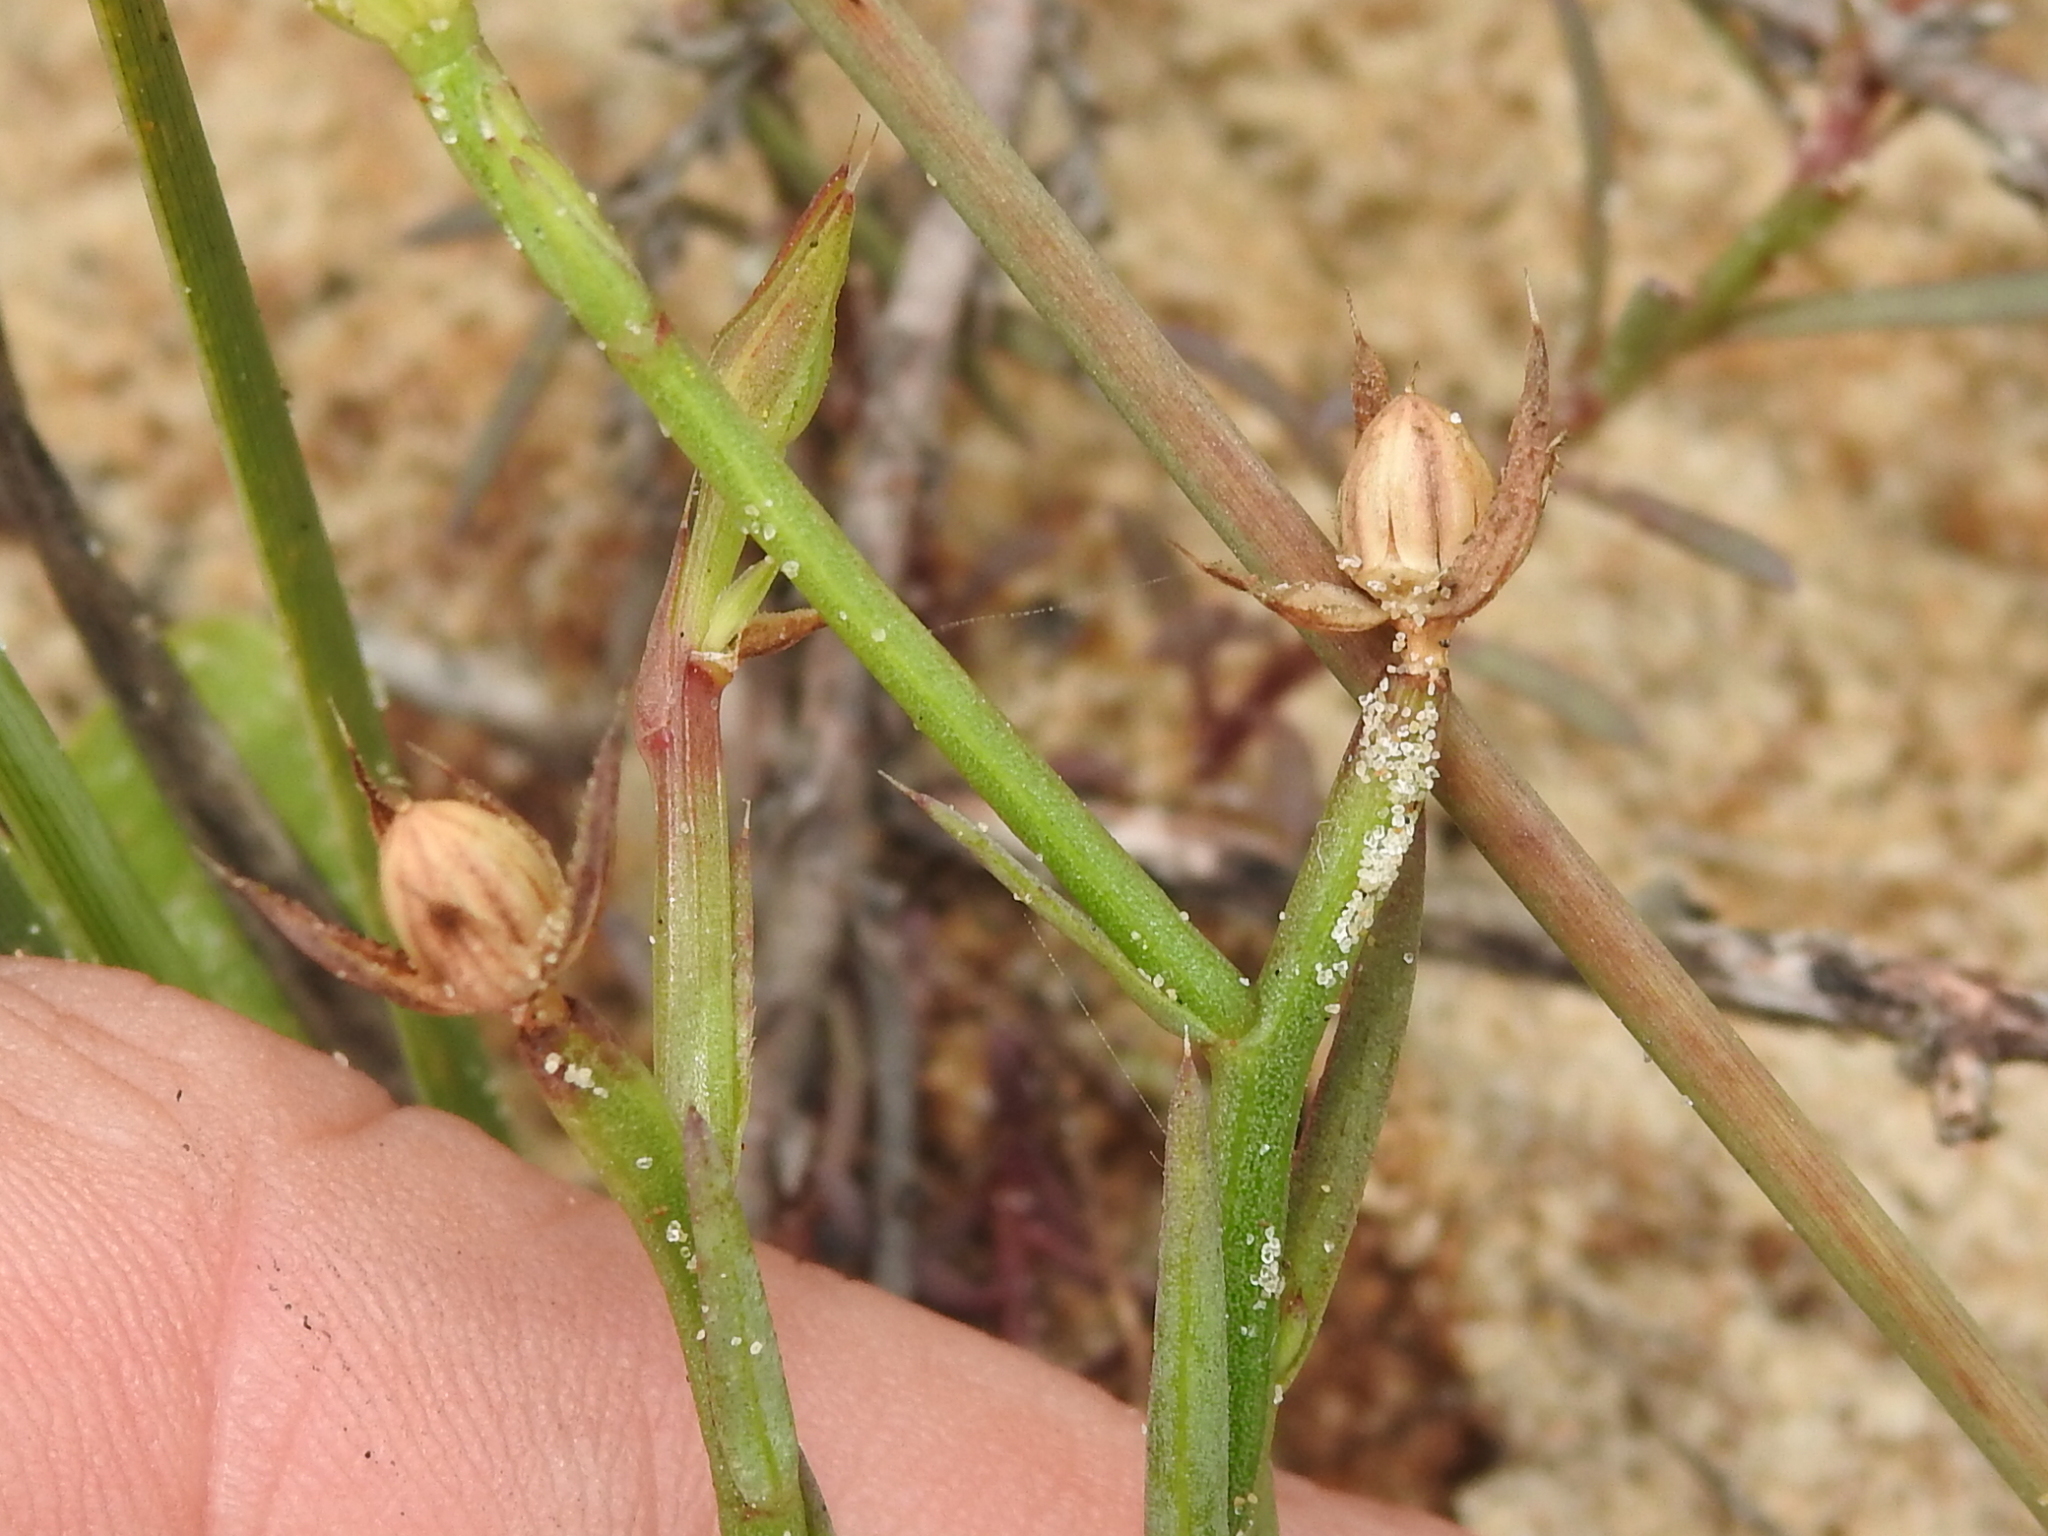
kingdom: Plantae
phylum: Tracheophyta
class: Magnoliopsida
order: Malpighiales
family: Linaceae
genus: Linum
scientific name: Linum alatum
